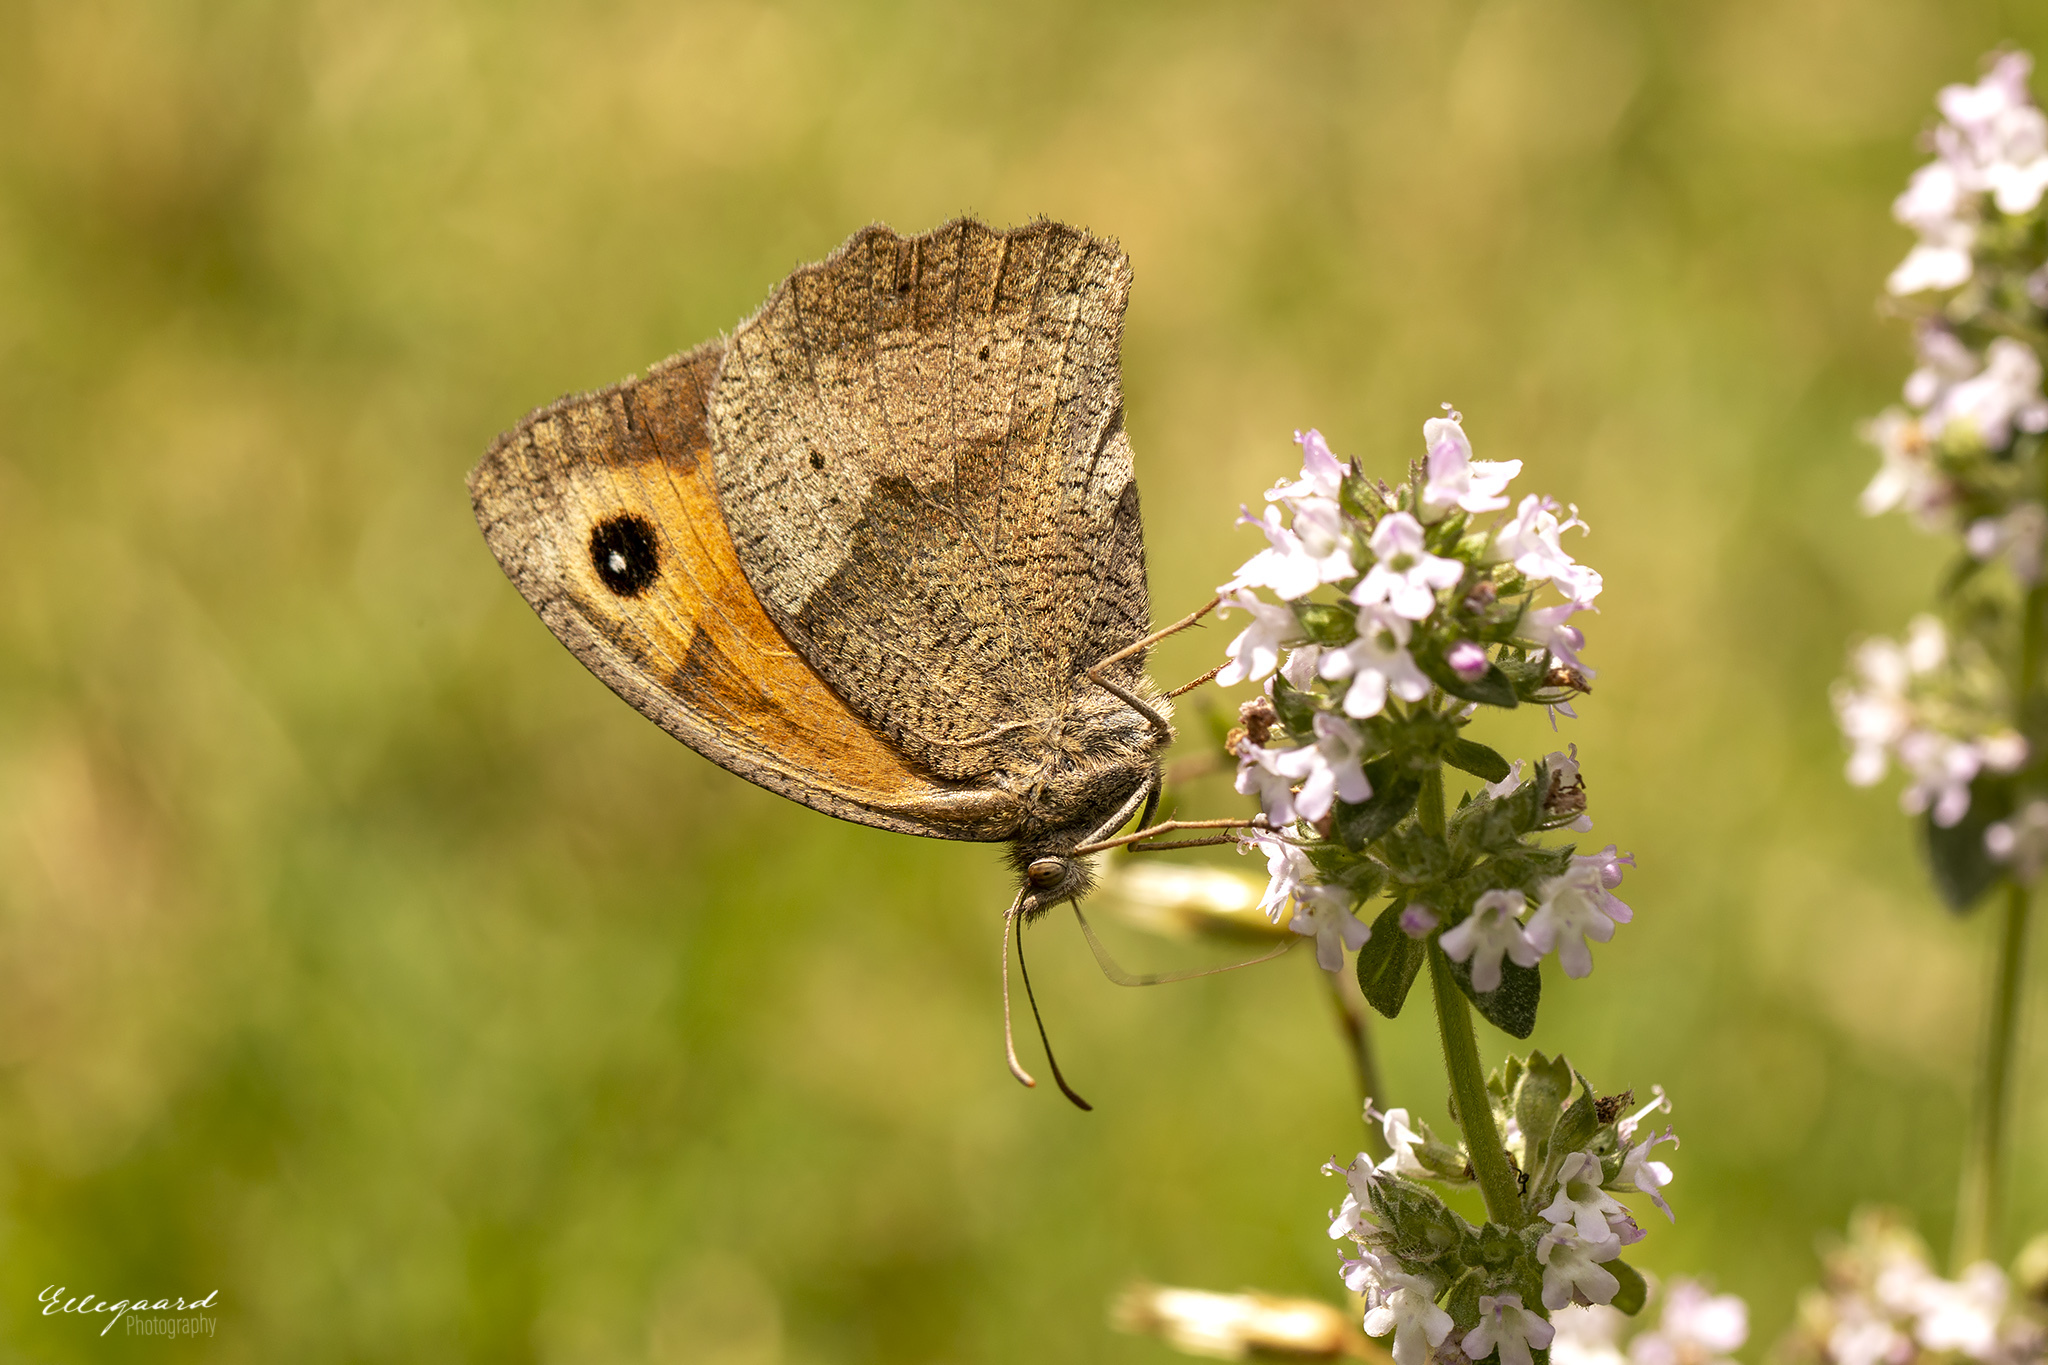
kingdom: Animalia
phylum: Arthropoda
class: Insecta
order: Lepidoptera
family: Nymphalidae
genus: Maniola
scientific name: Maniola jurtina
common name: Meadow brown
